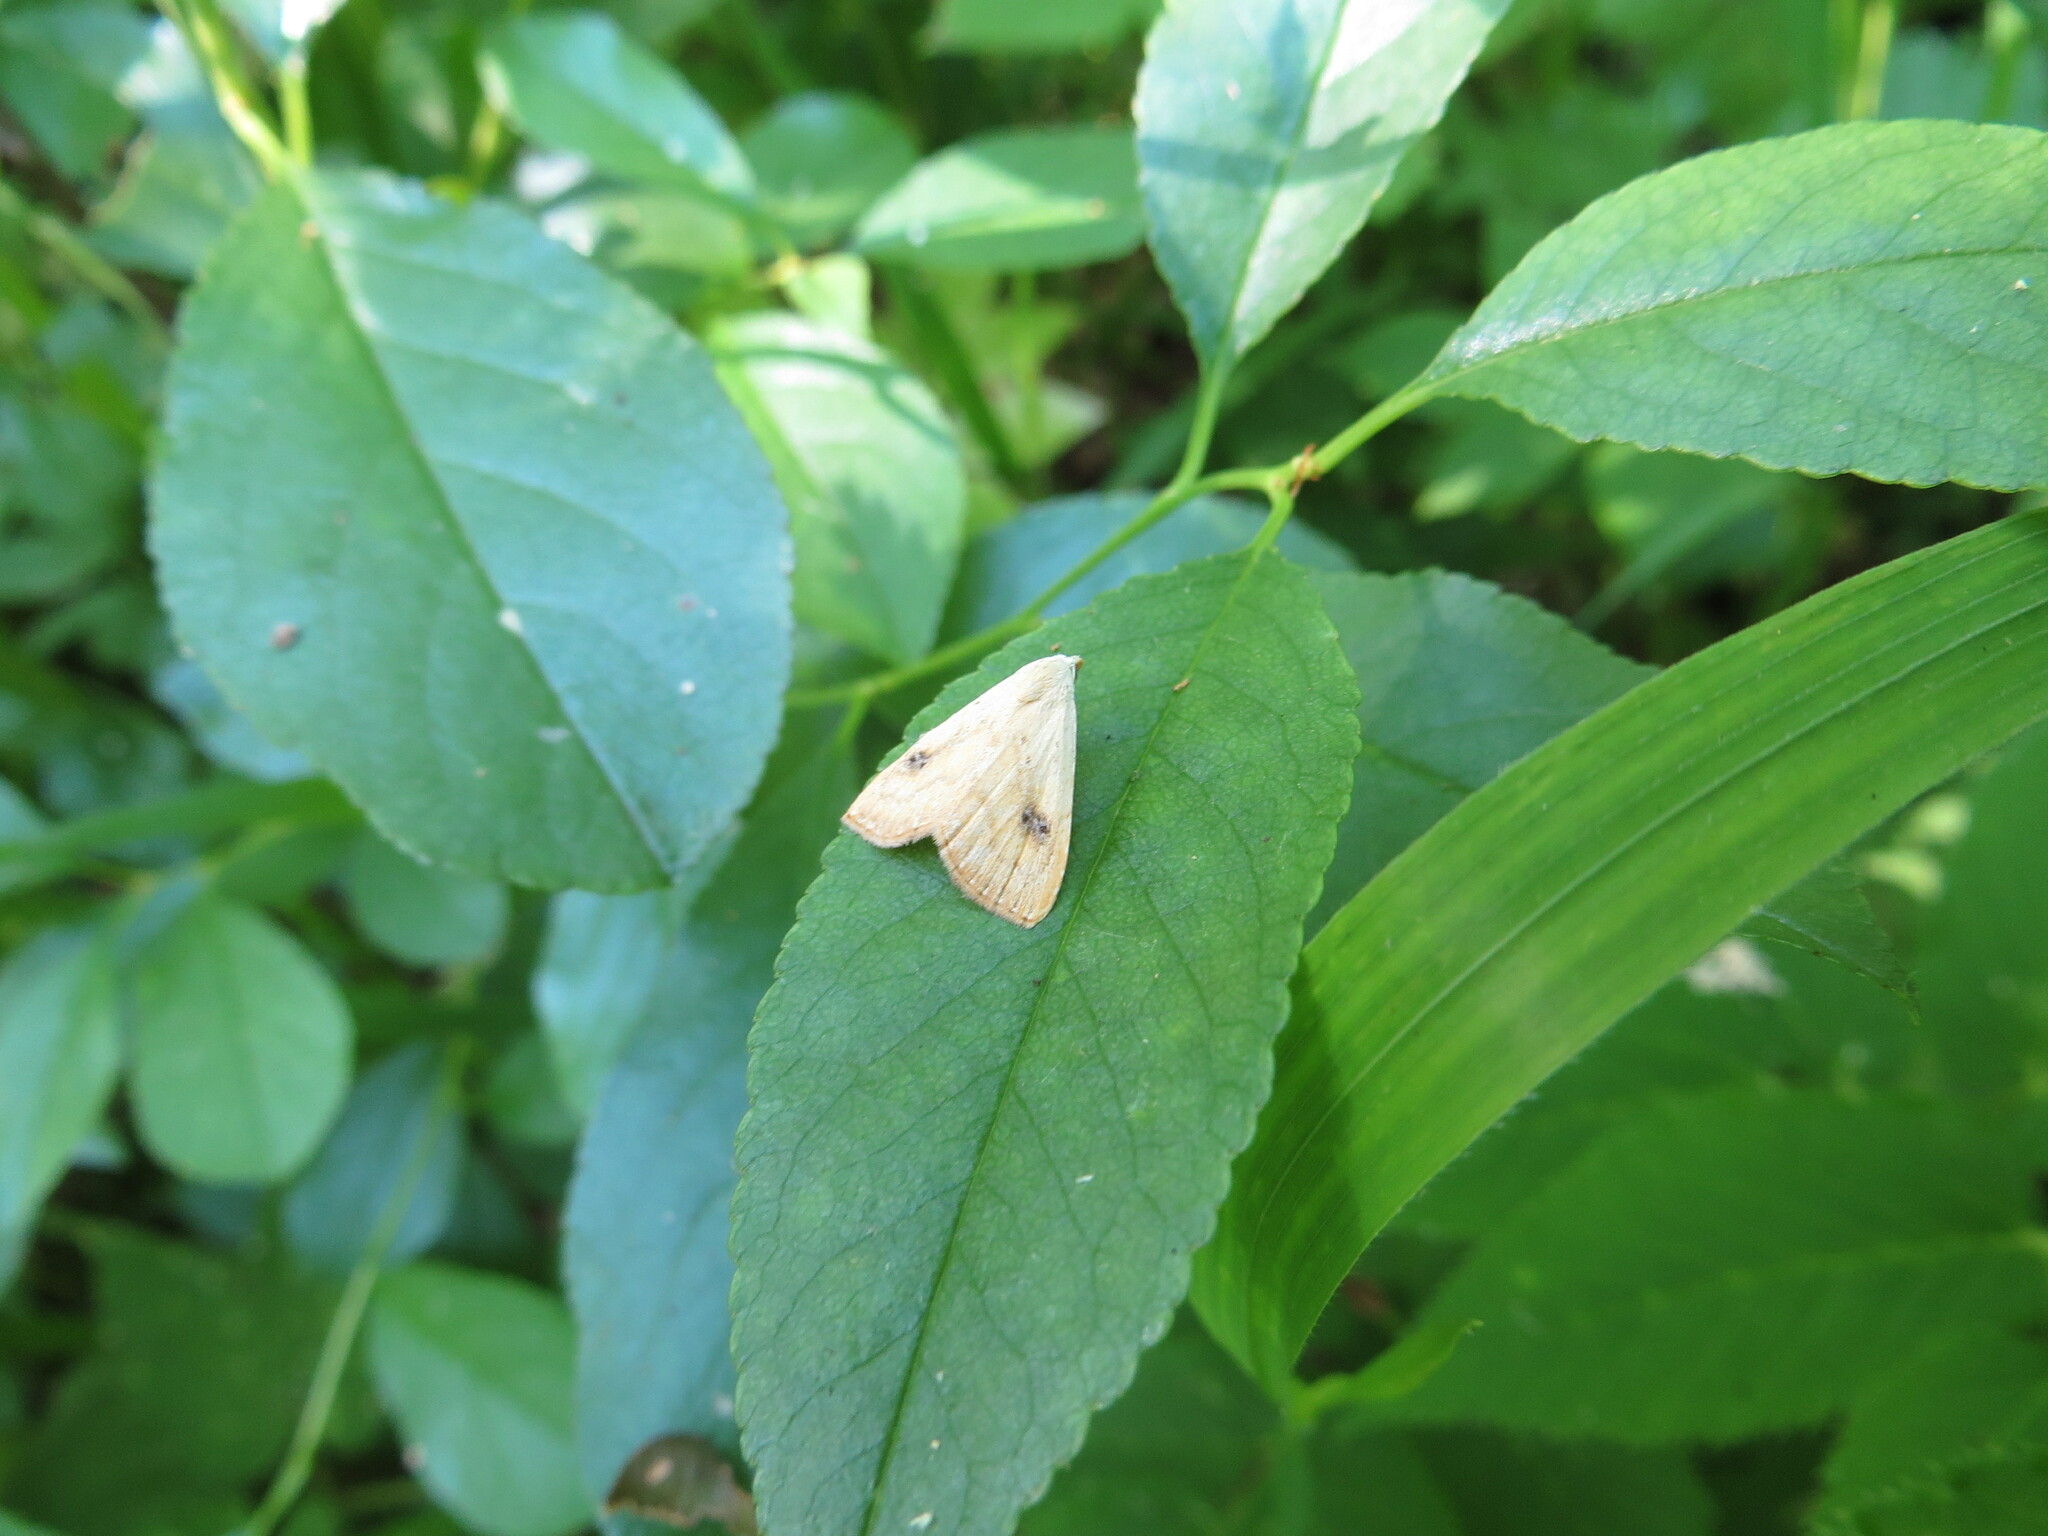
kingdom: Animalia
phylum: Arthropoda
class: Insecta
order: Lepidoptera
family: Erebidae
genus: Rivula
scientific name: Rivula sericealis
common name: Straw dot
